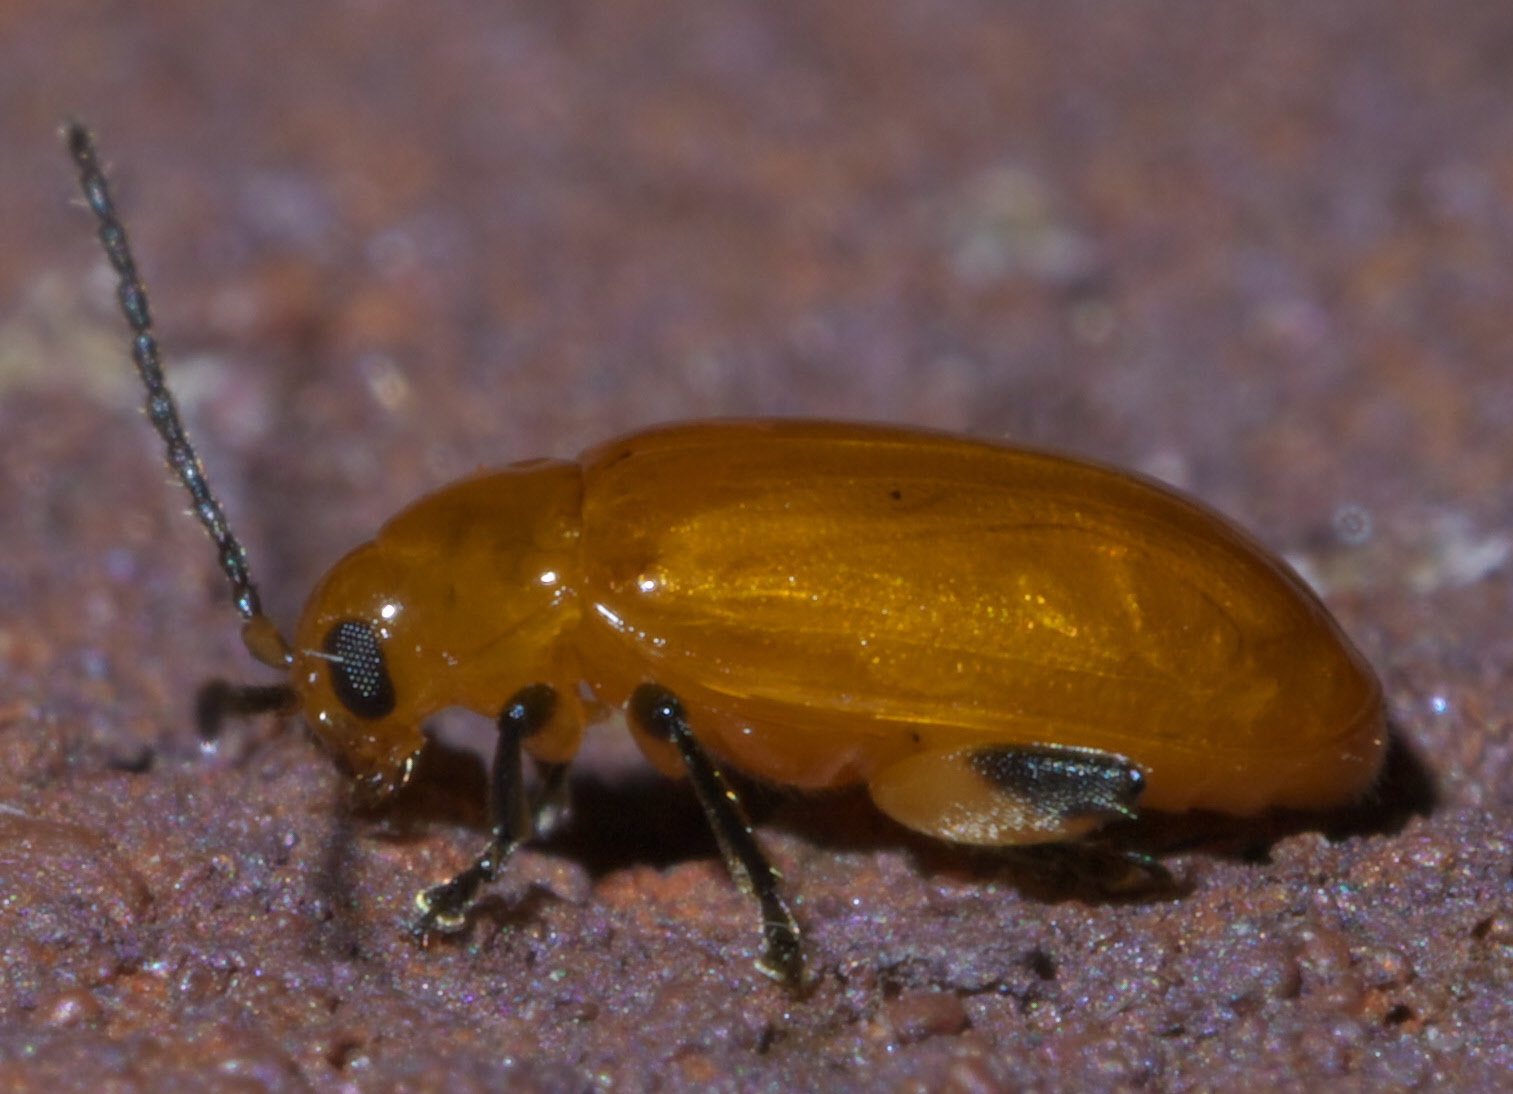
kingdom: Animalia
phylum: Arthropoda
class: Insecta
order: Coleoptera
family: Chrysomelidae
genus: Parchicola
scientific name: Parchicola tibialis
